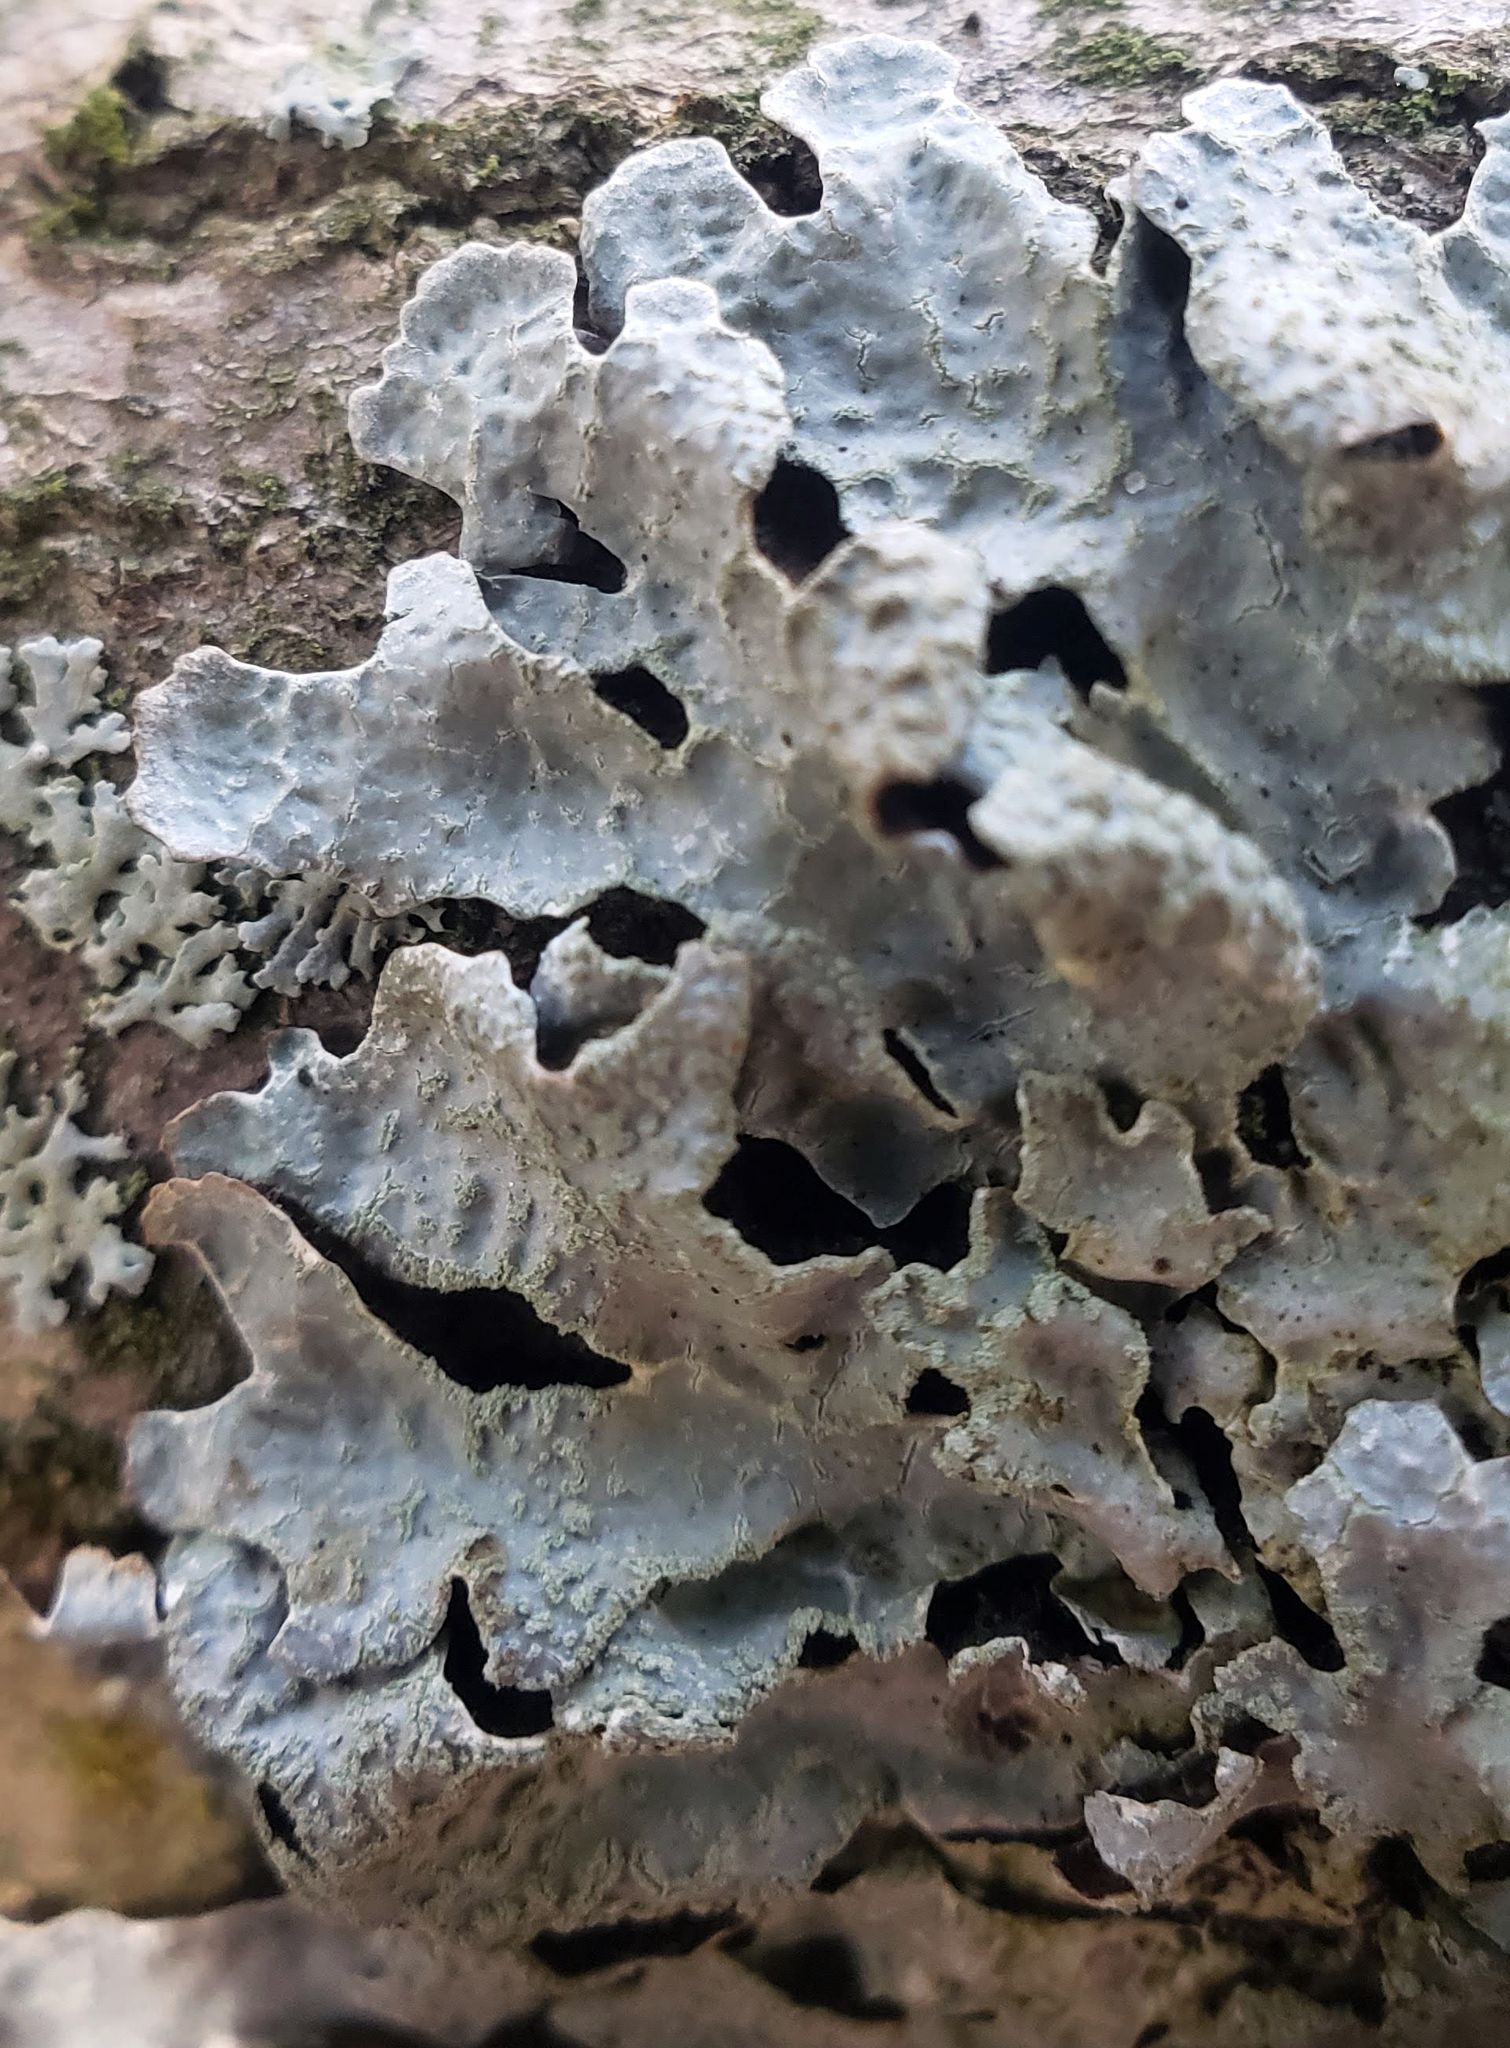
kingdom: Fungi
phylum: Ascomycota
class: Lecanoromycetes
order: Lecanorales
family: Parmeliaceae
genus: Parmelia
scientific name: Parmelia sulcata
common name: Netted shield lichen
